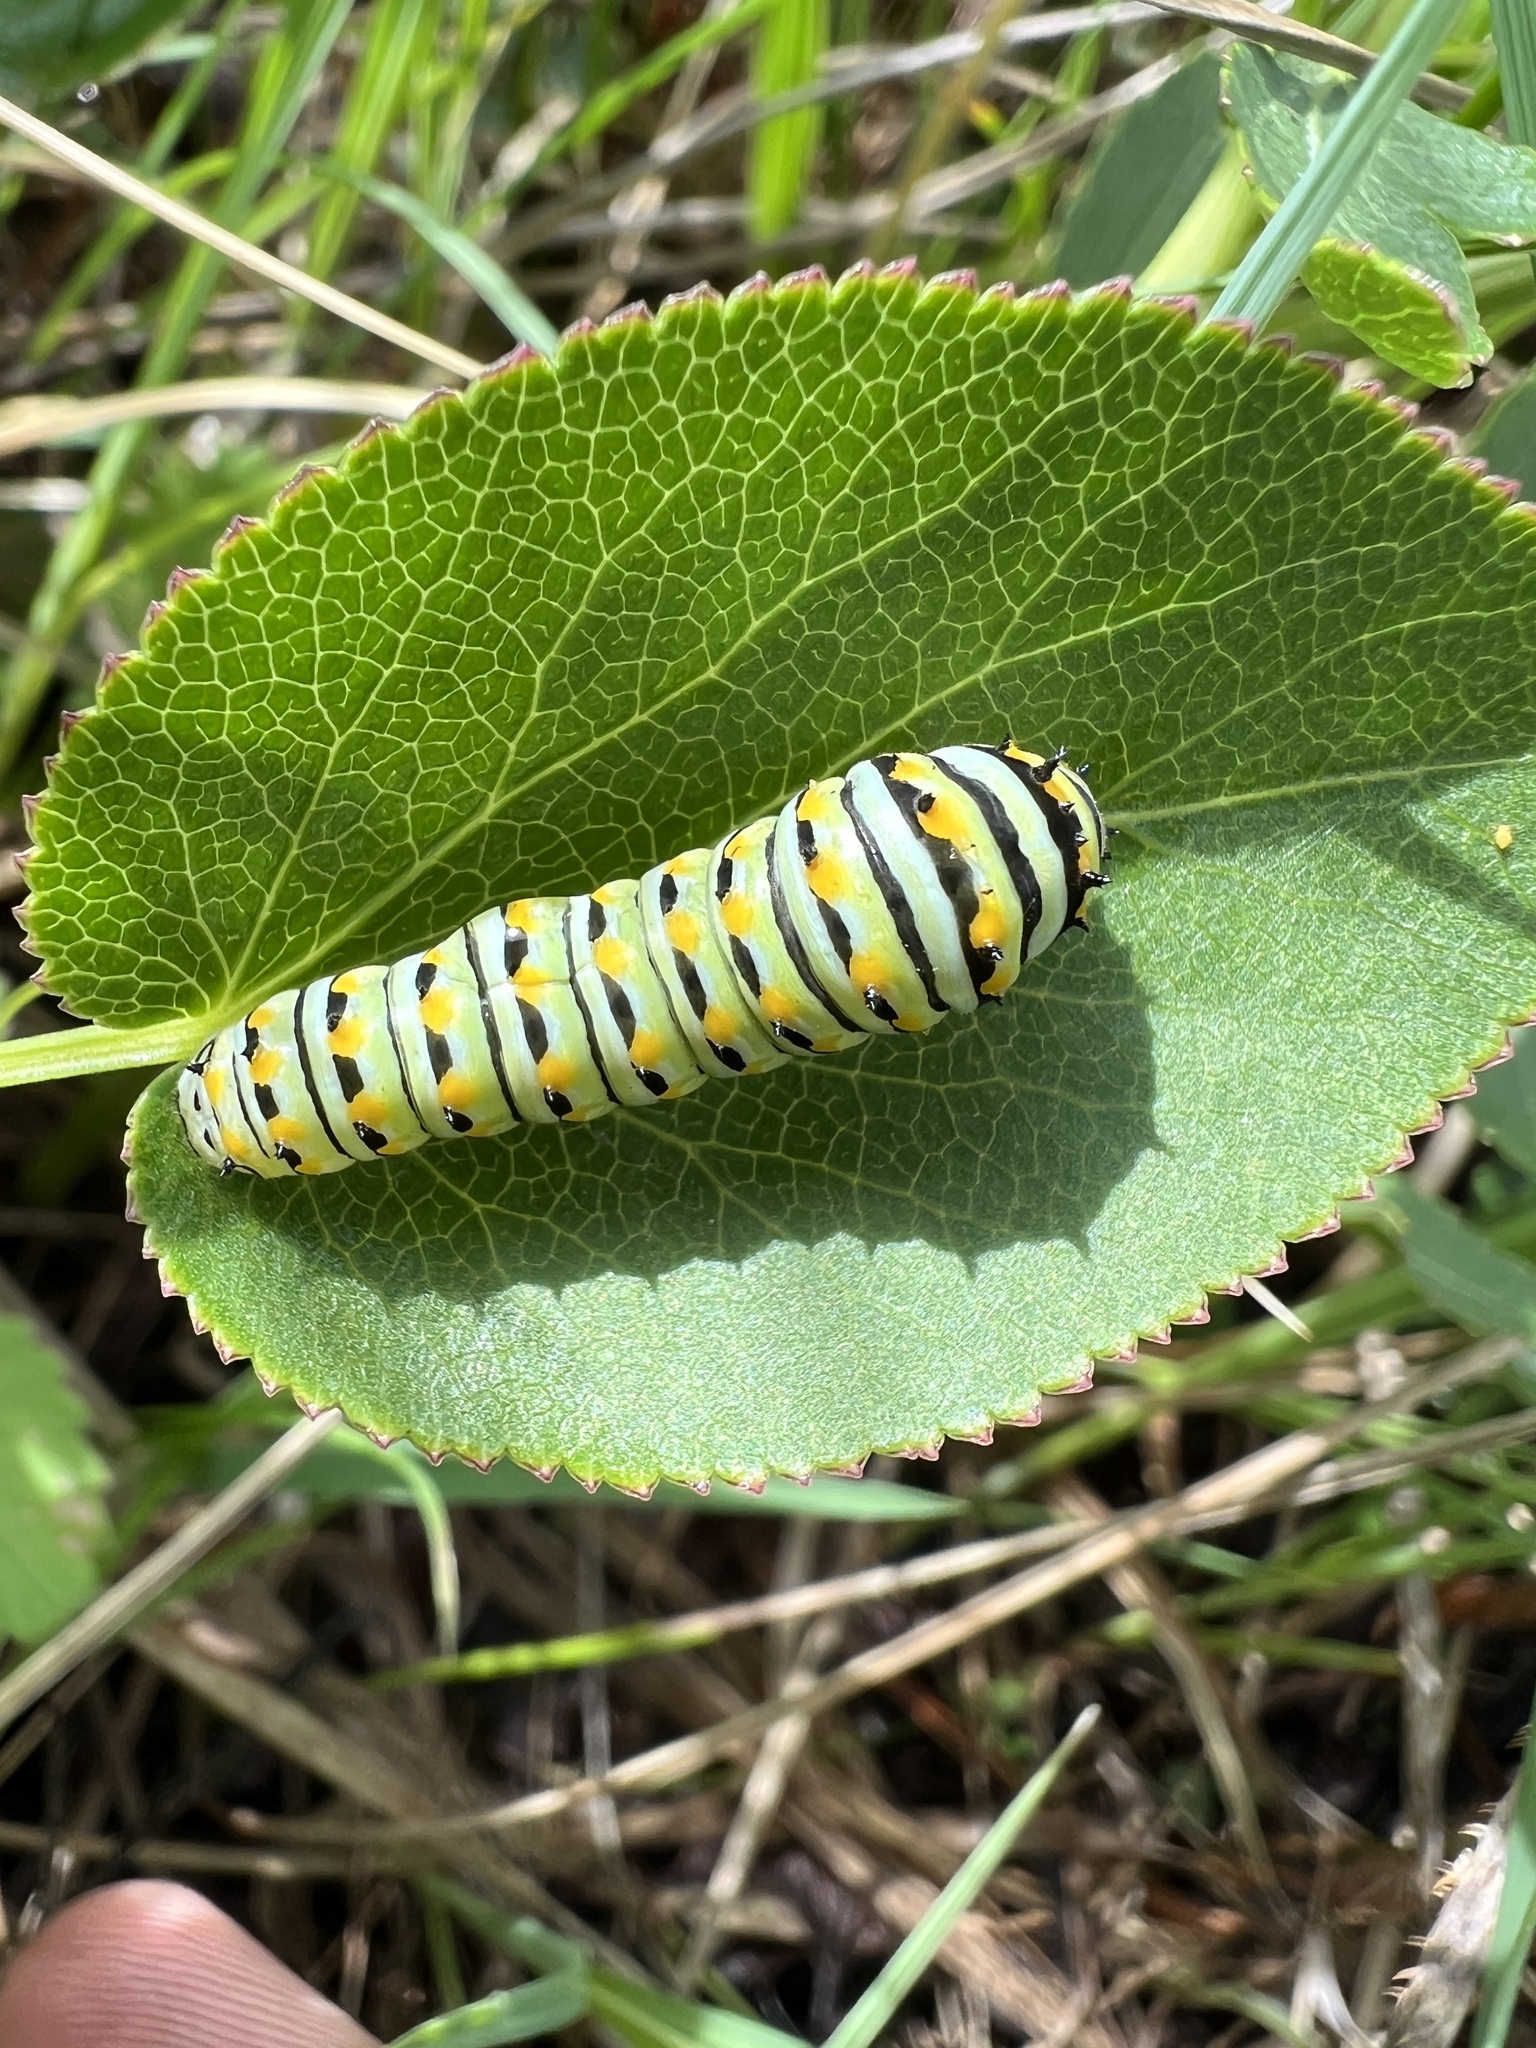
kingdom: Animalia
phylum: Arthropoda
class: Insecta
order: Lepidoptera
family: Papilionidae
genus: Papilio
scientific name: Papilio polyxenes
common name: Black swallowtail
